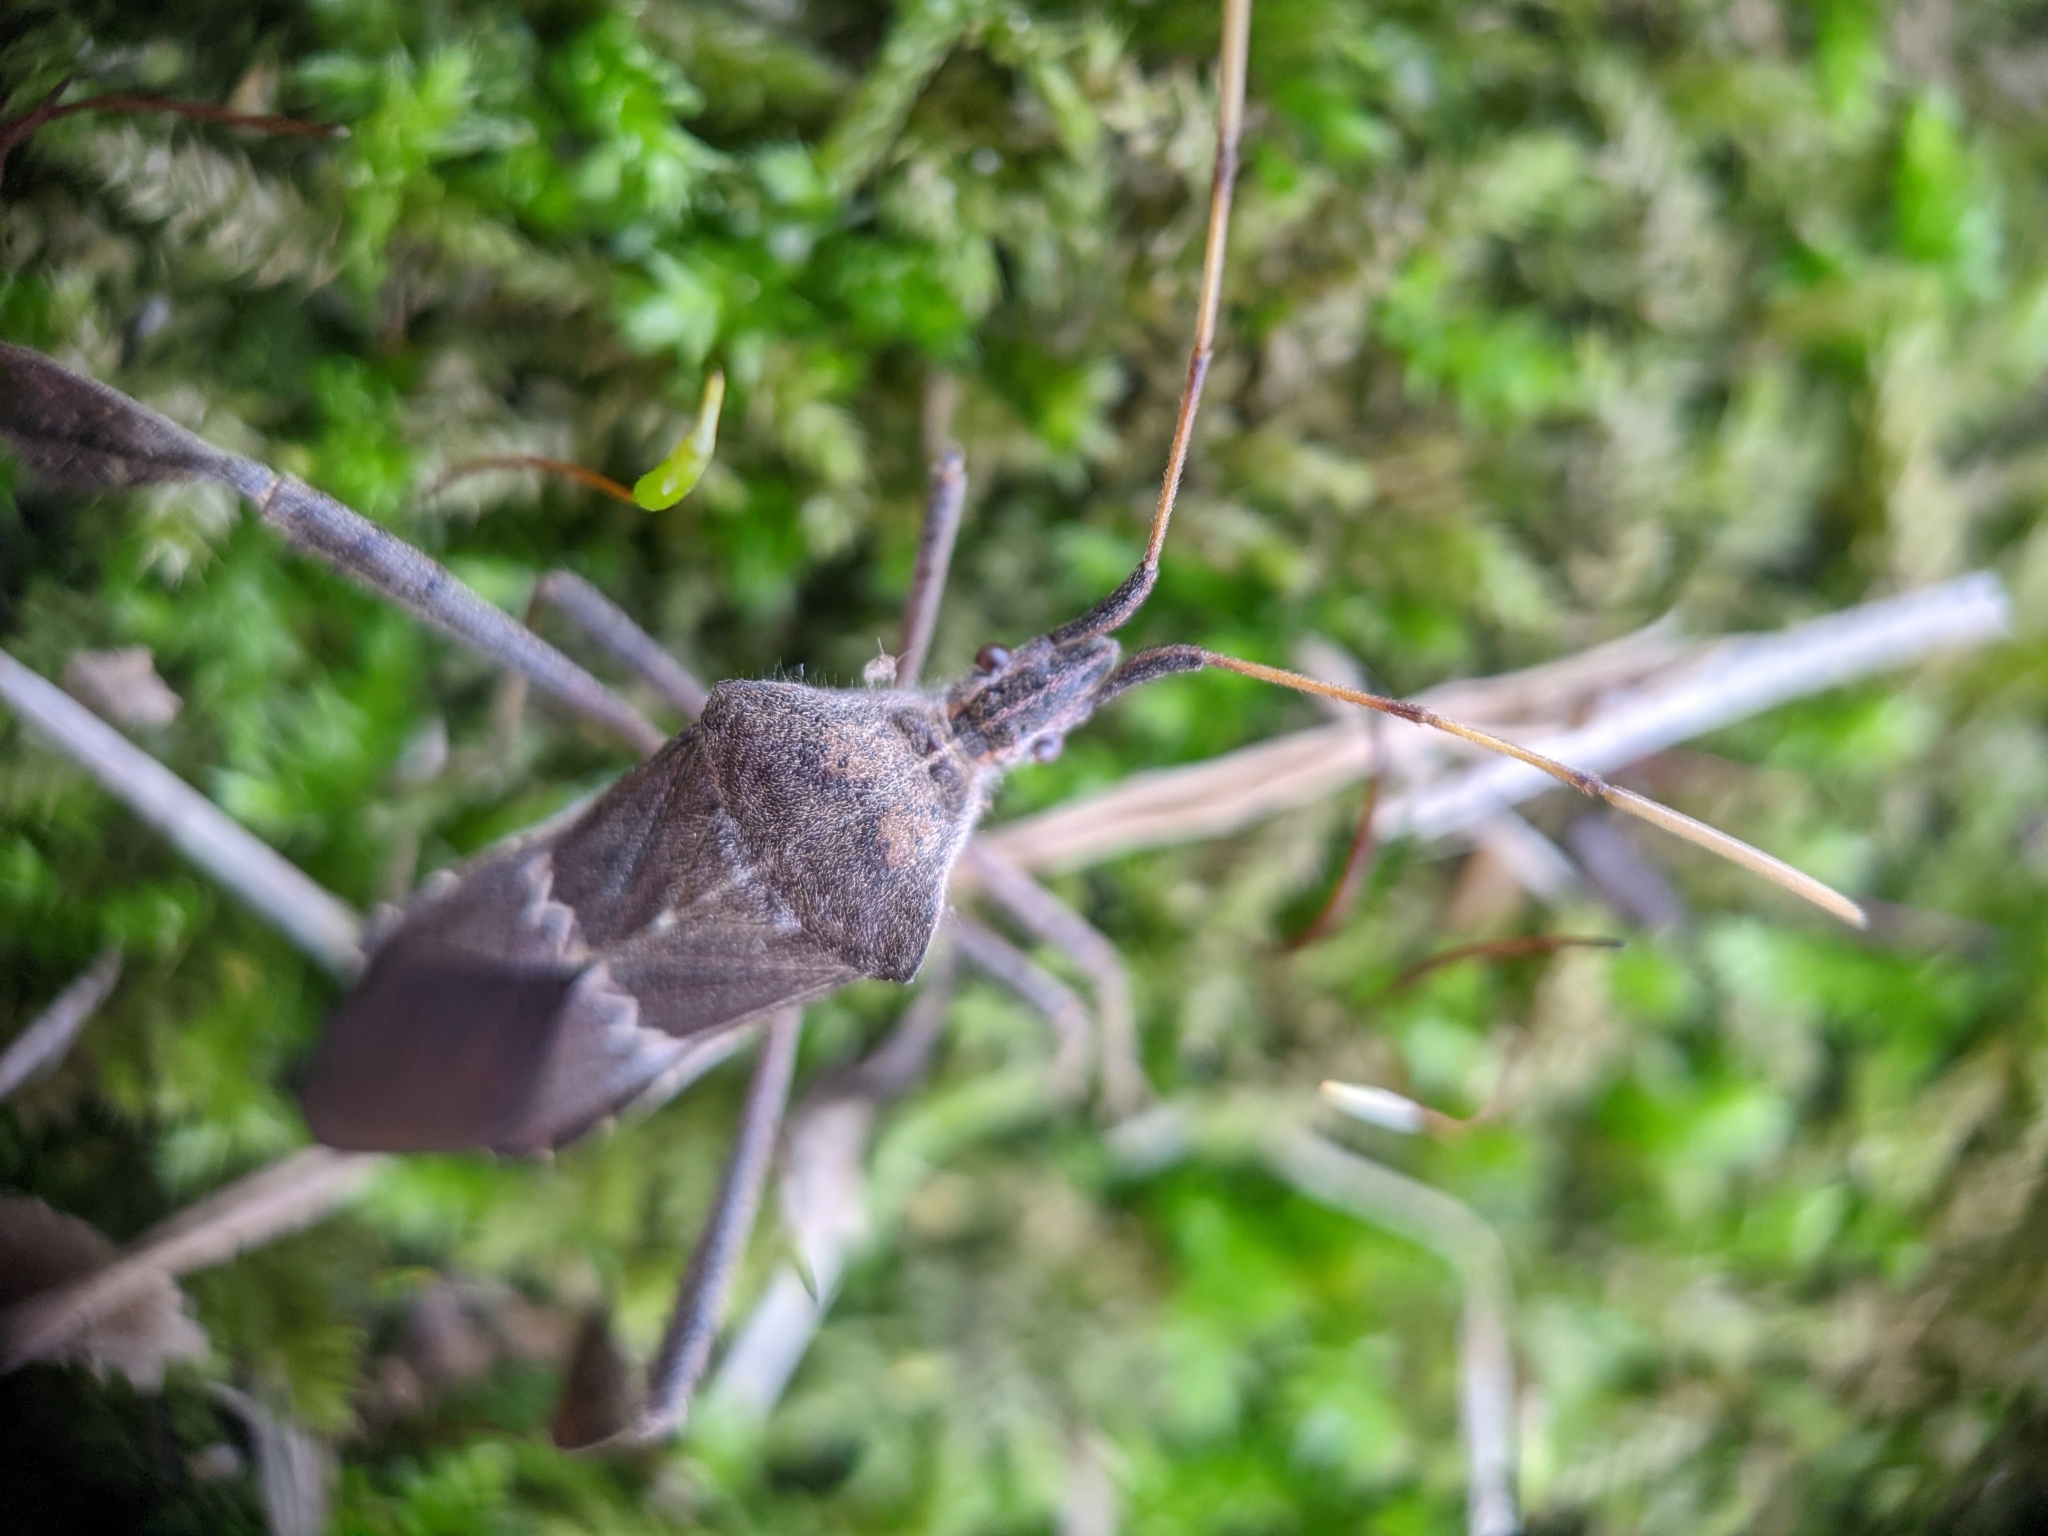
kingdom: Animalia
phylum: Arthropoda
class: Insecta
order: Hemiptera
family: Coreidae
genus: Leptoglossus
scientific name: Leptoglossus zonatus
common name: Large-legged bug
